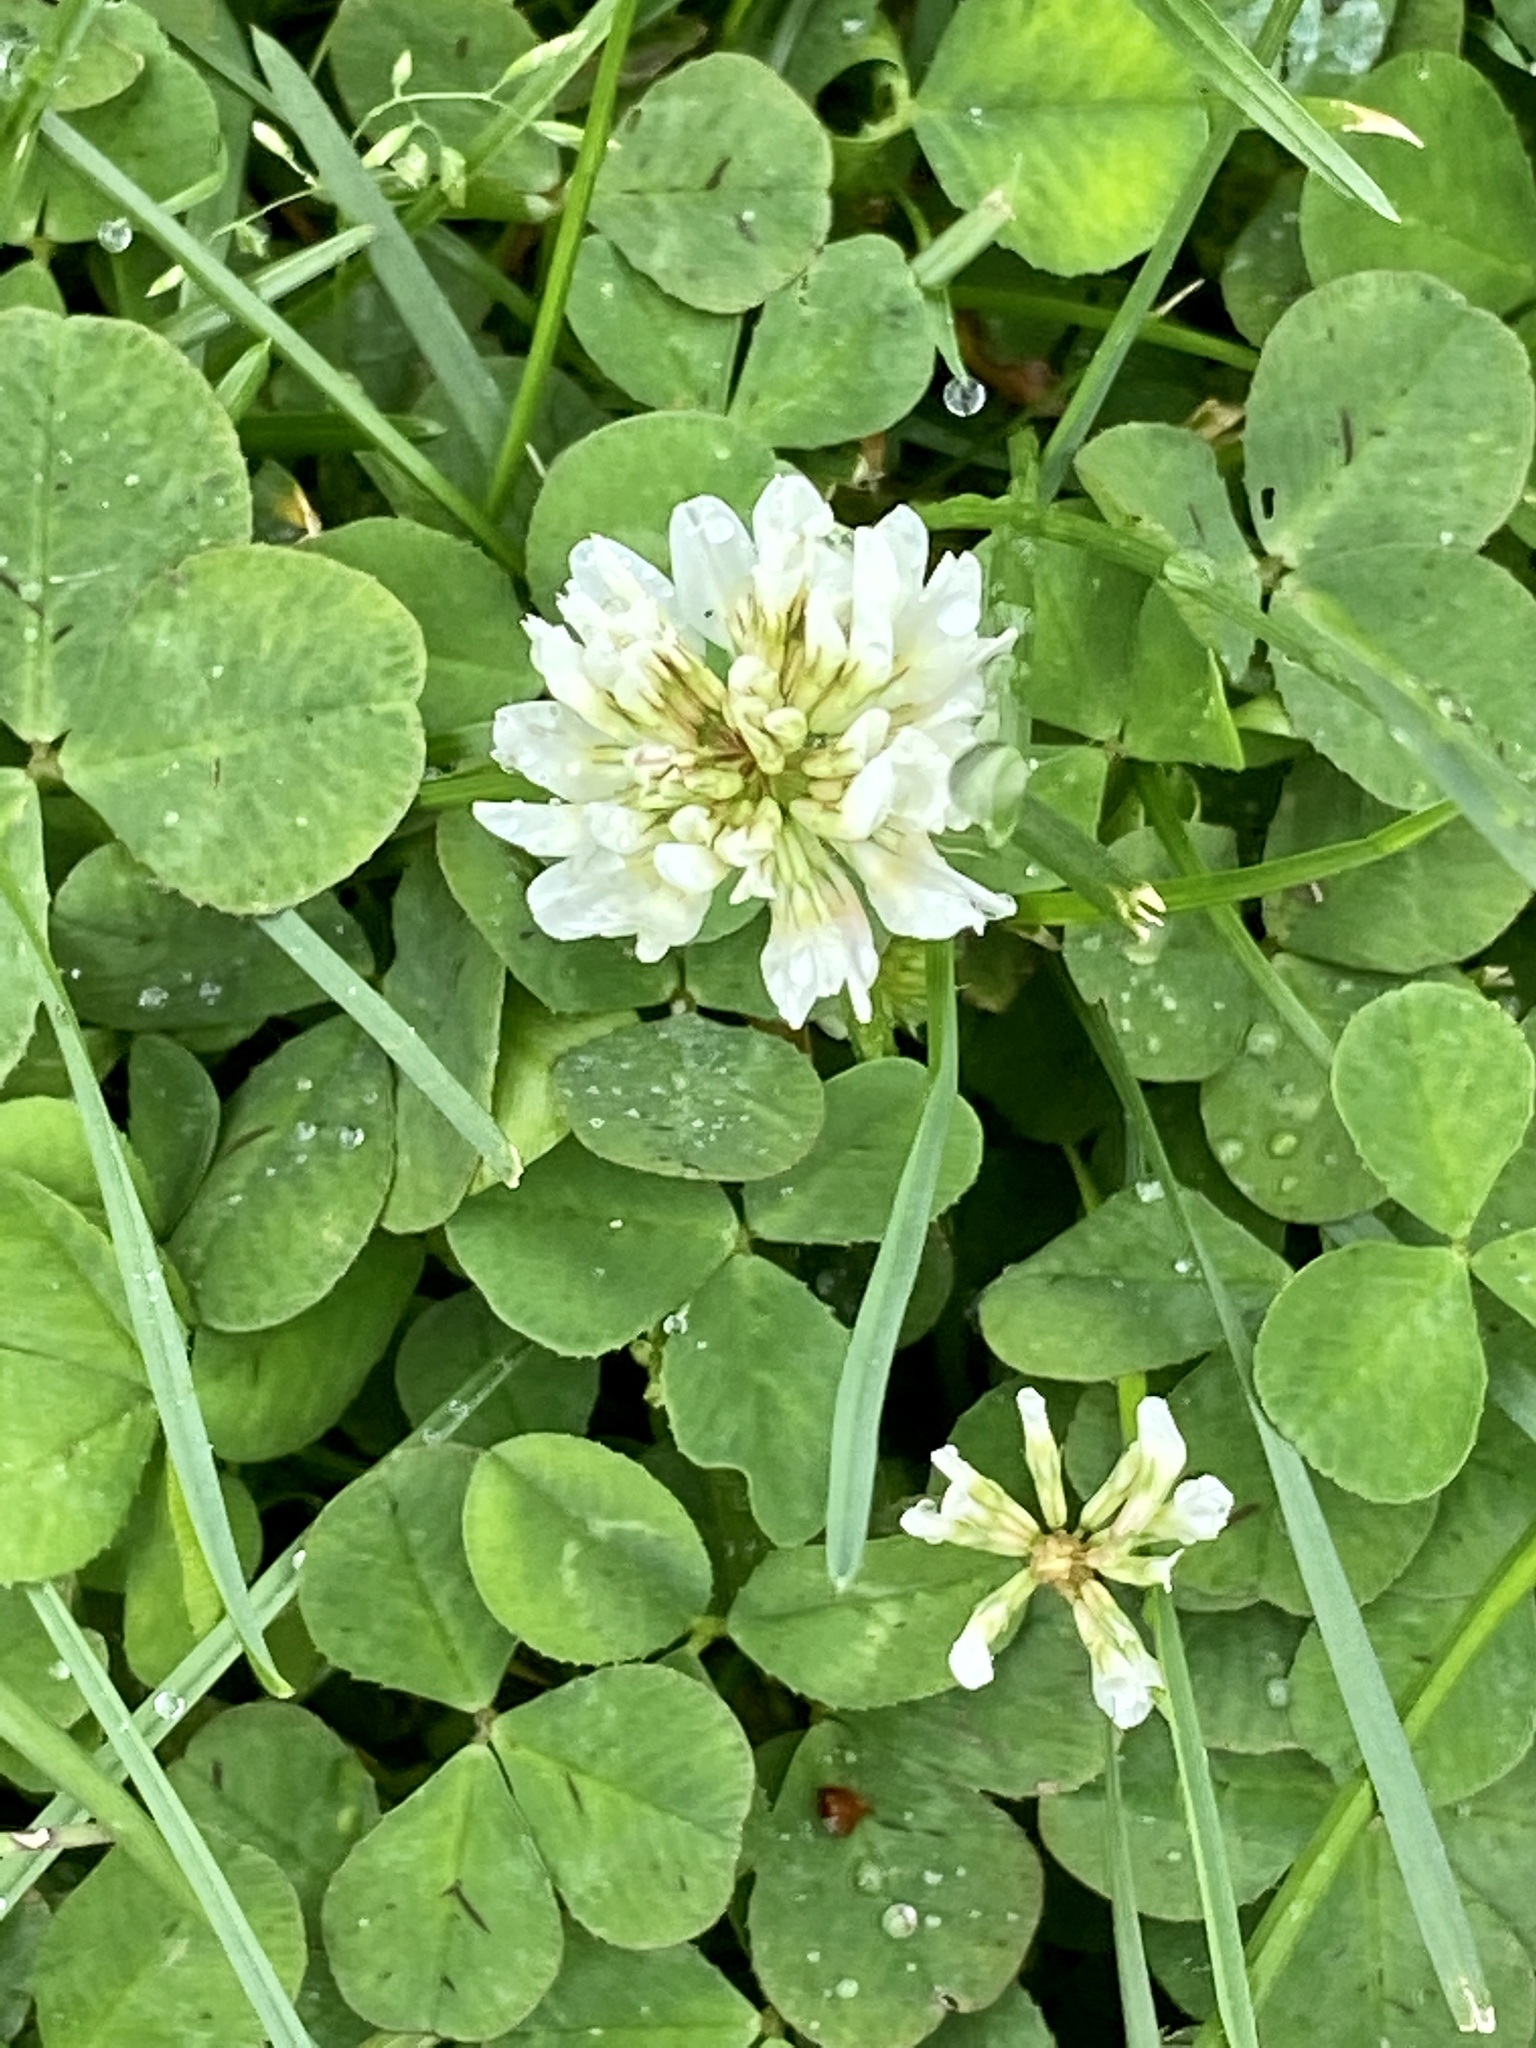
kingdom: Plantae
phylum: Tracheophyta
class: Magnoliopsida
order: Fabales
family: Fabaceae
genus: Trifolium
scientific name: Trifolium repens
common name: White clover
